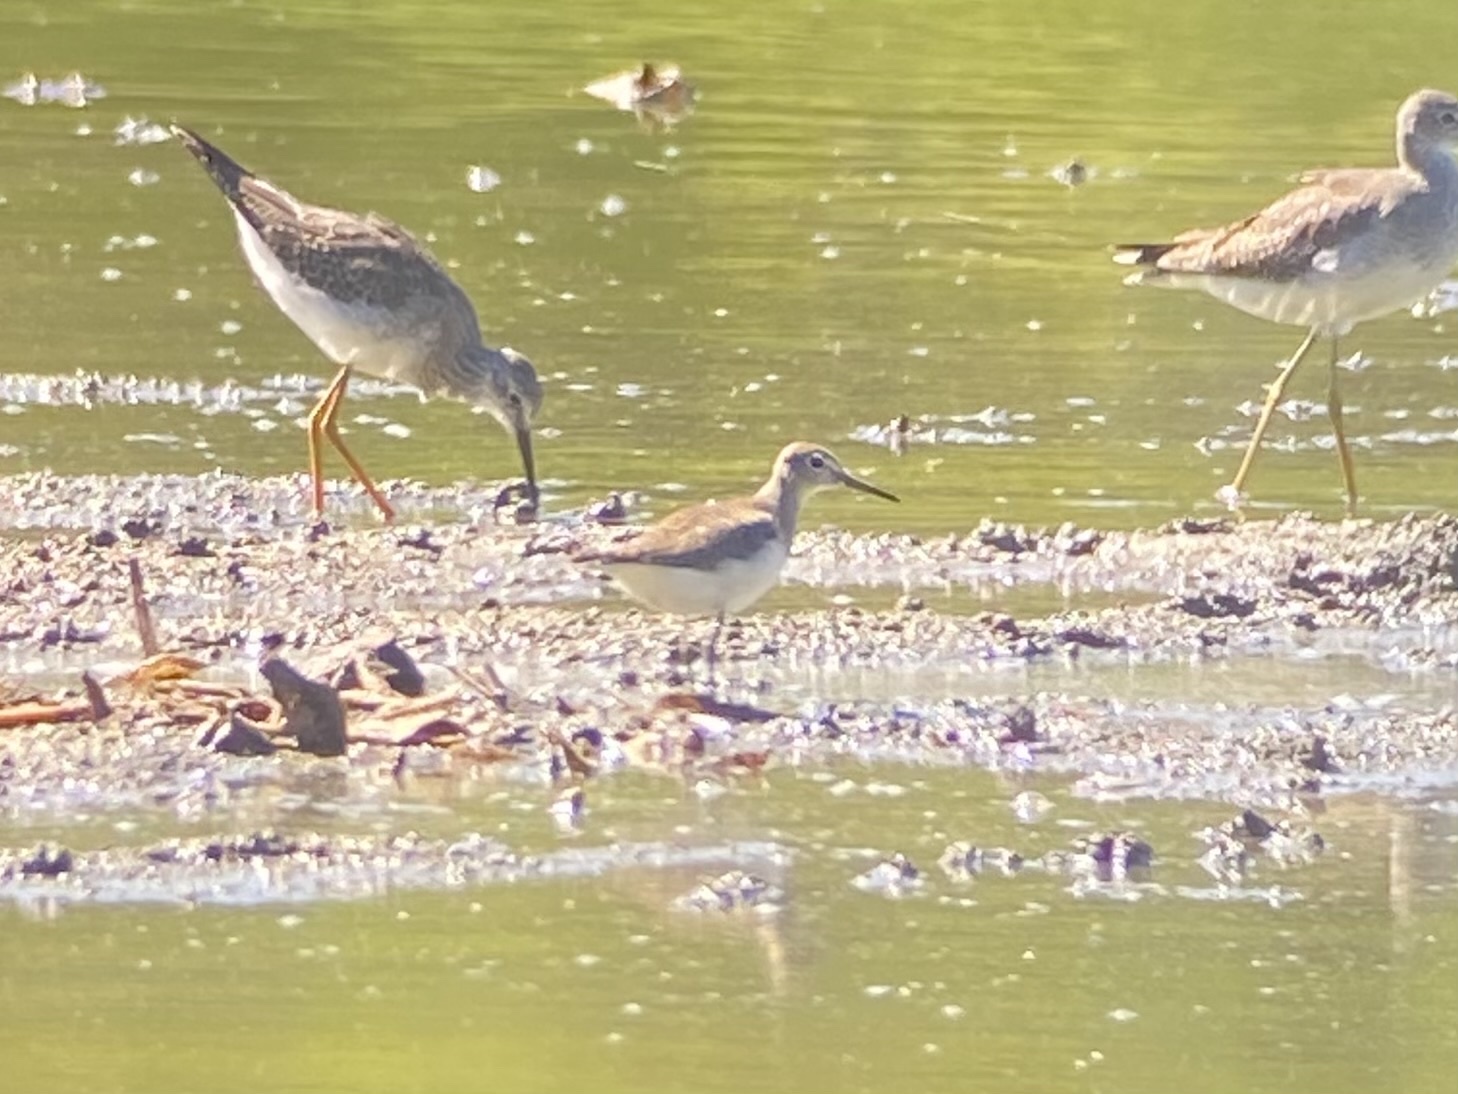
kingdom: Animalia
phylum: Chordata
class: Aves
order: Charadriiformes
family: Scolopacidae
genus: Tringa
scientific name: Tringa solitaria
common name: Solitary sandpiper
